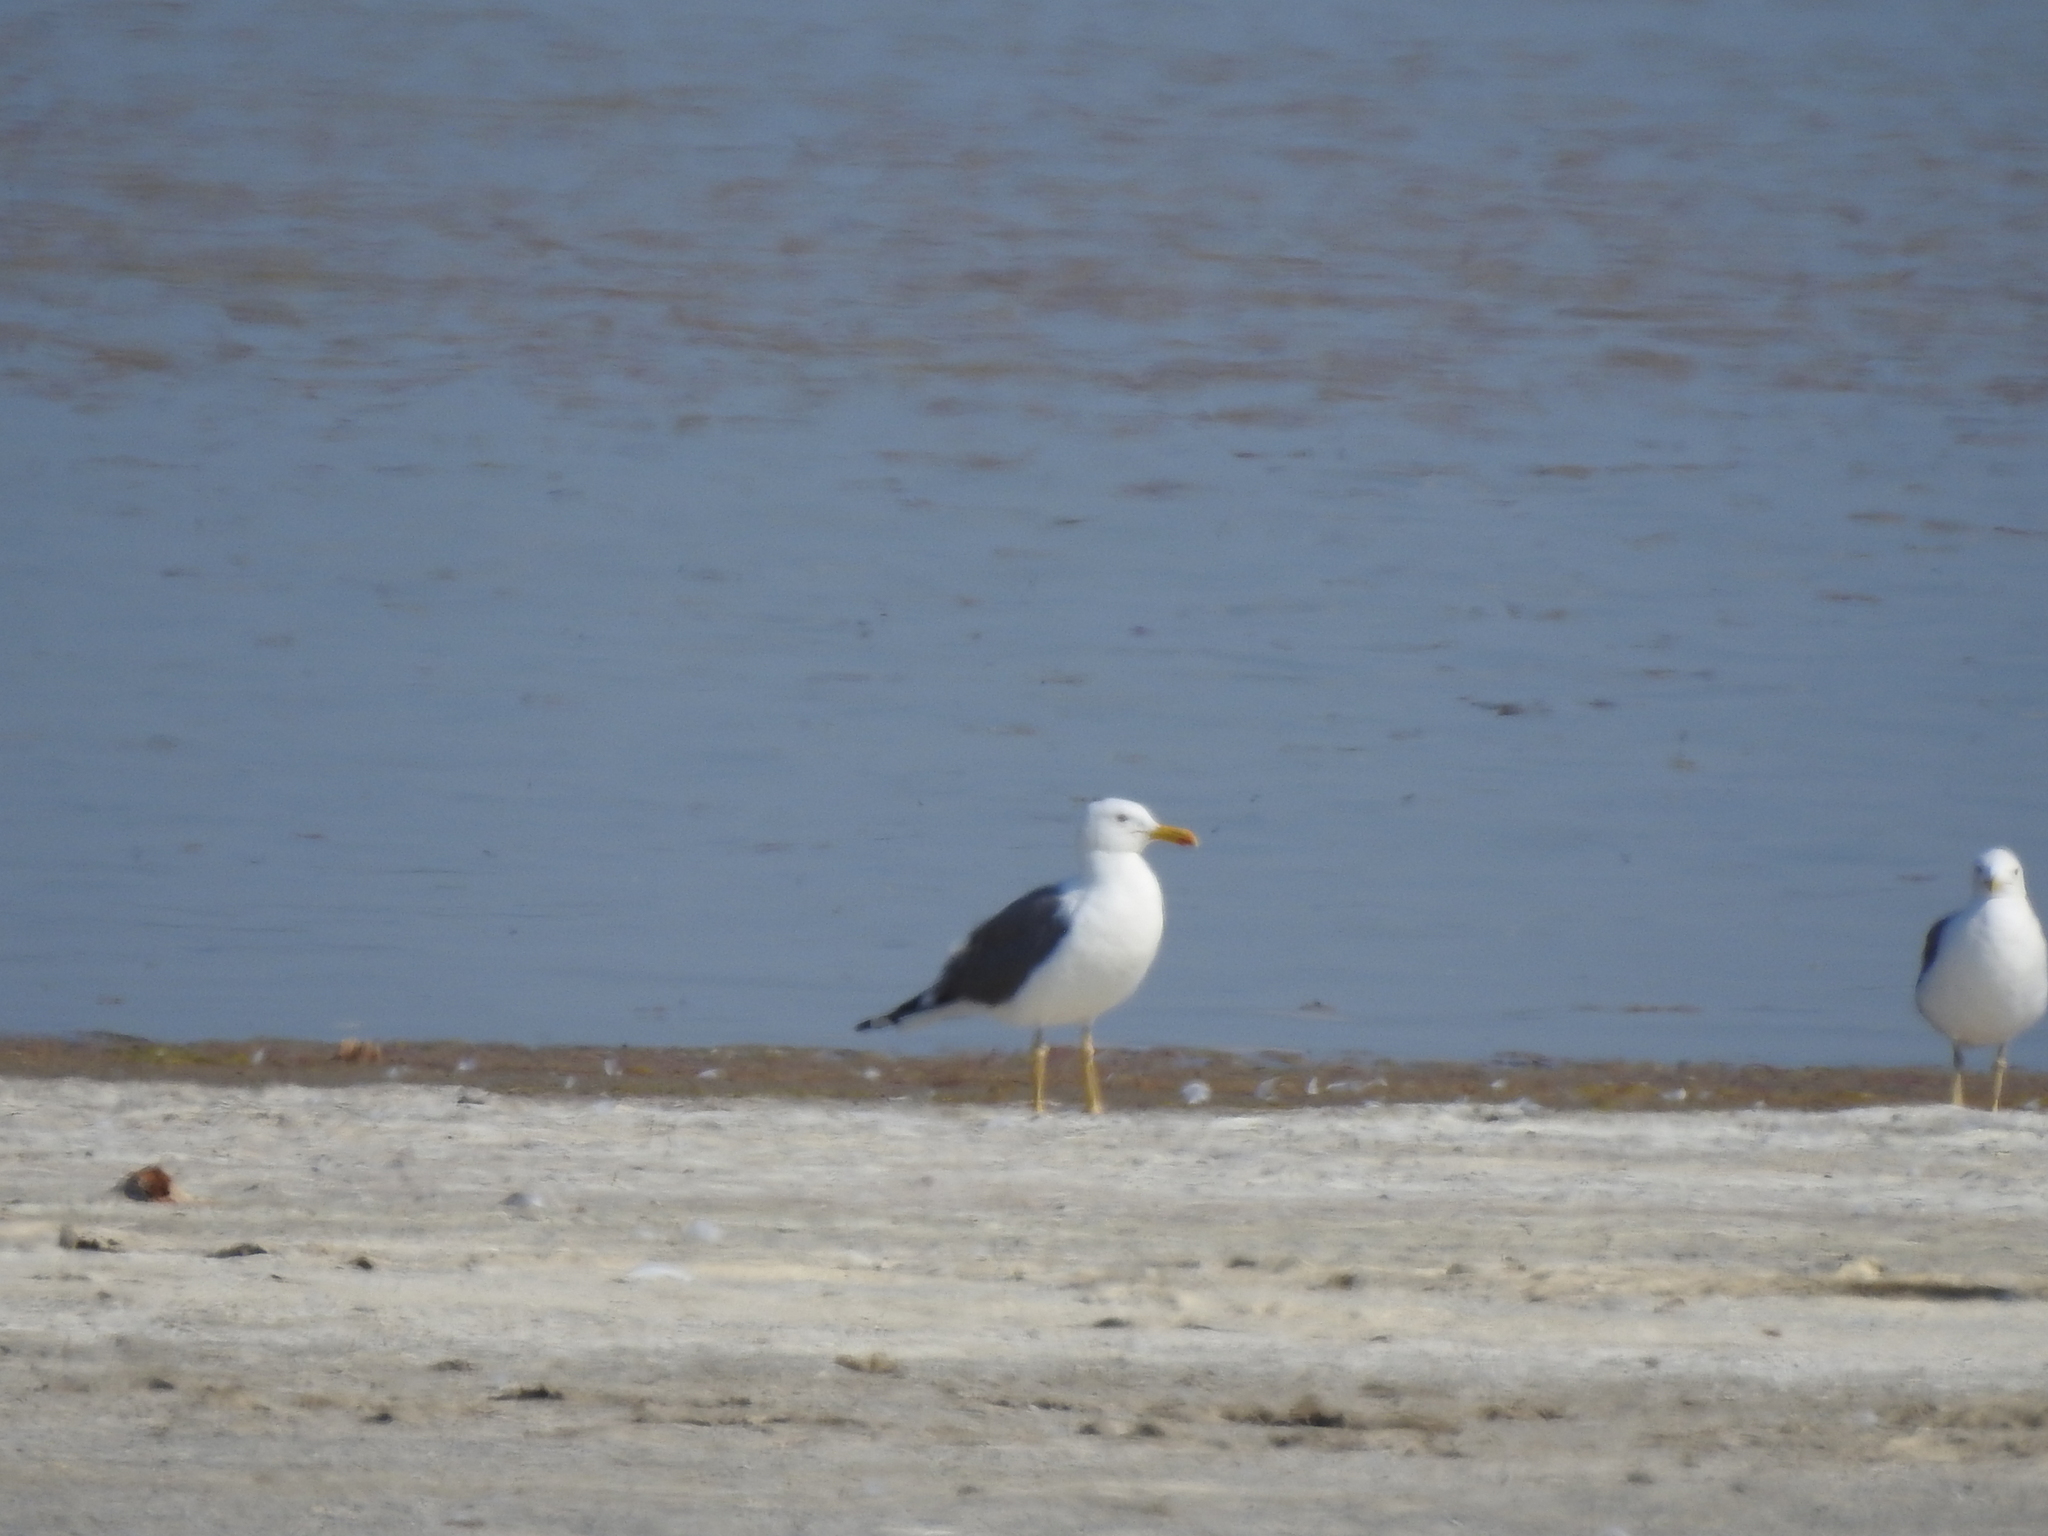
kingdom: Animalia
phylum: Chordata
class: Aves
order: Charadriiformes
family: Laridae
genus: Larus
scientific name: Larus fuscus
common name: Lesser black-backed gull
